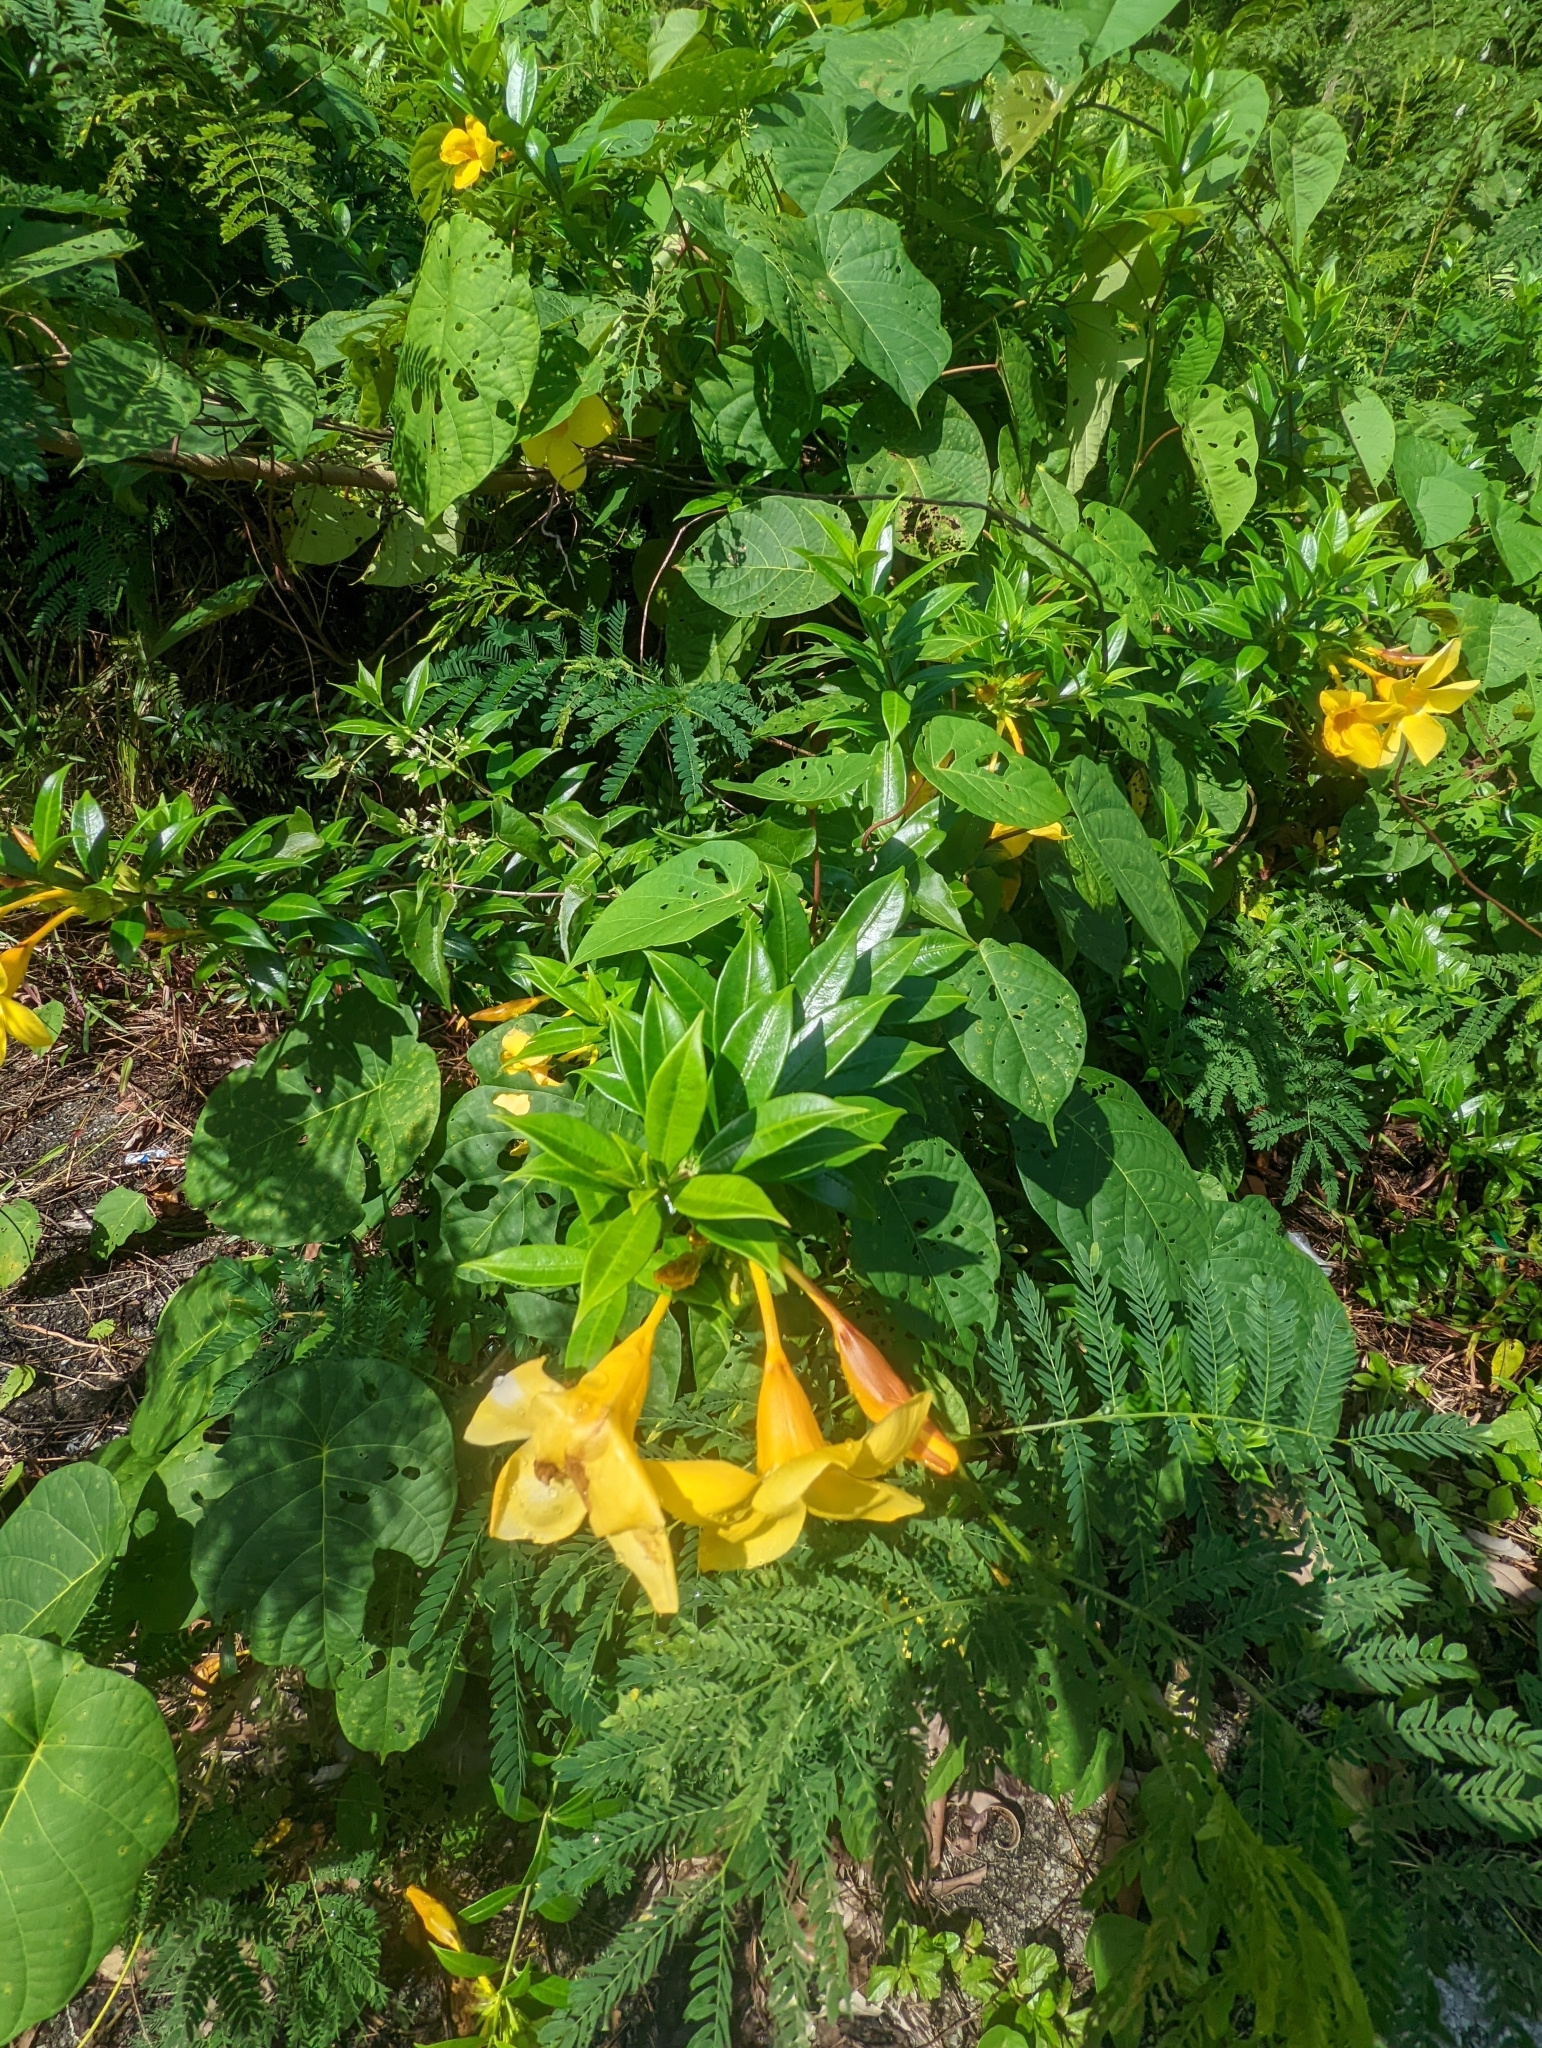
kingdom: Plantae
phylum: Tracheophyta
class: Magnoliopsida
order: Gentianales
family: Apocynaceae
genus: Allamanda
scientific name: Allamanda cathartica
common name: Golden trumpet
